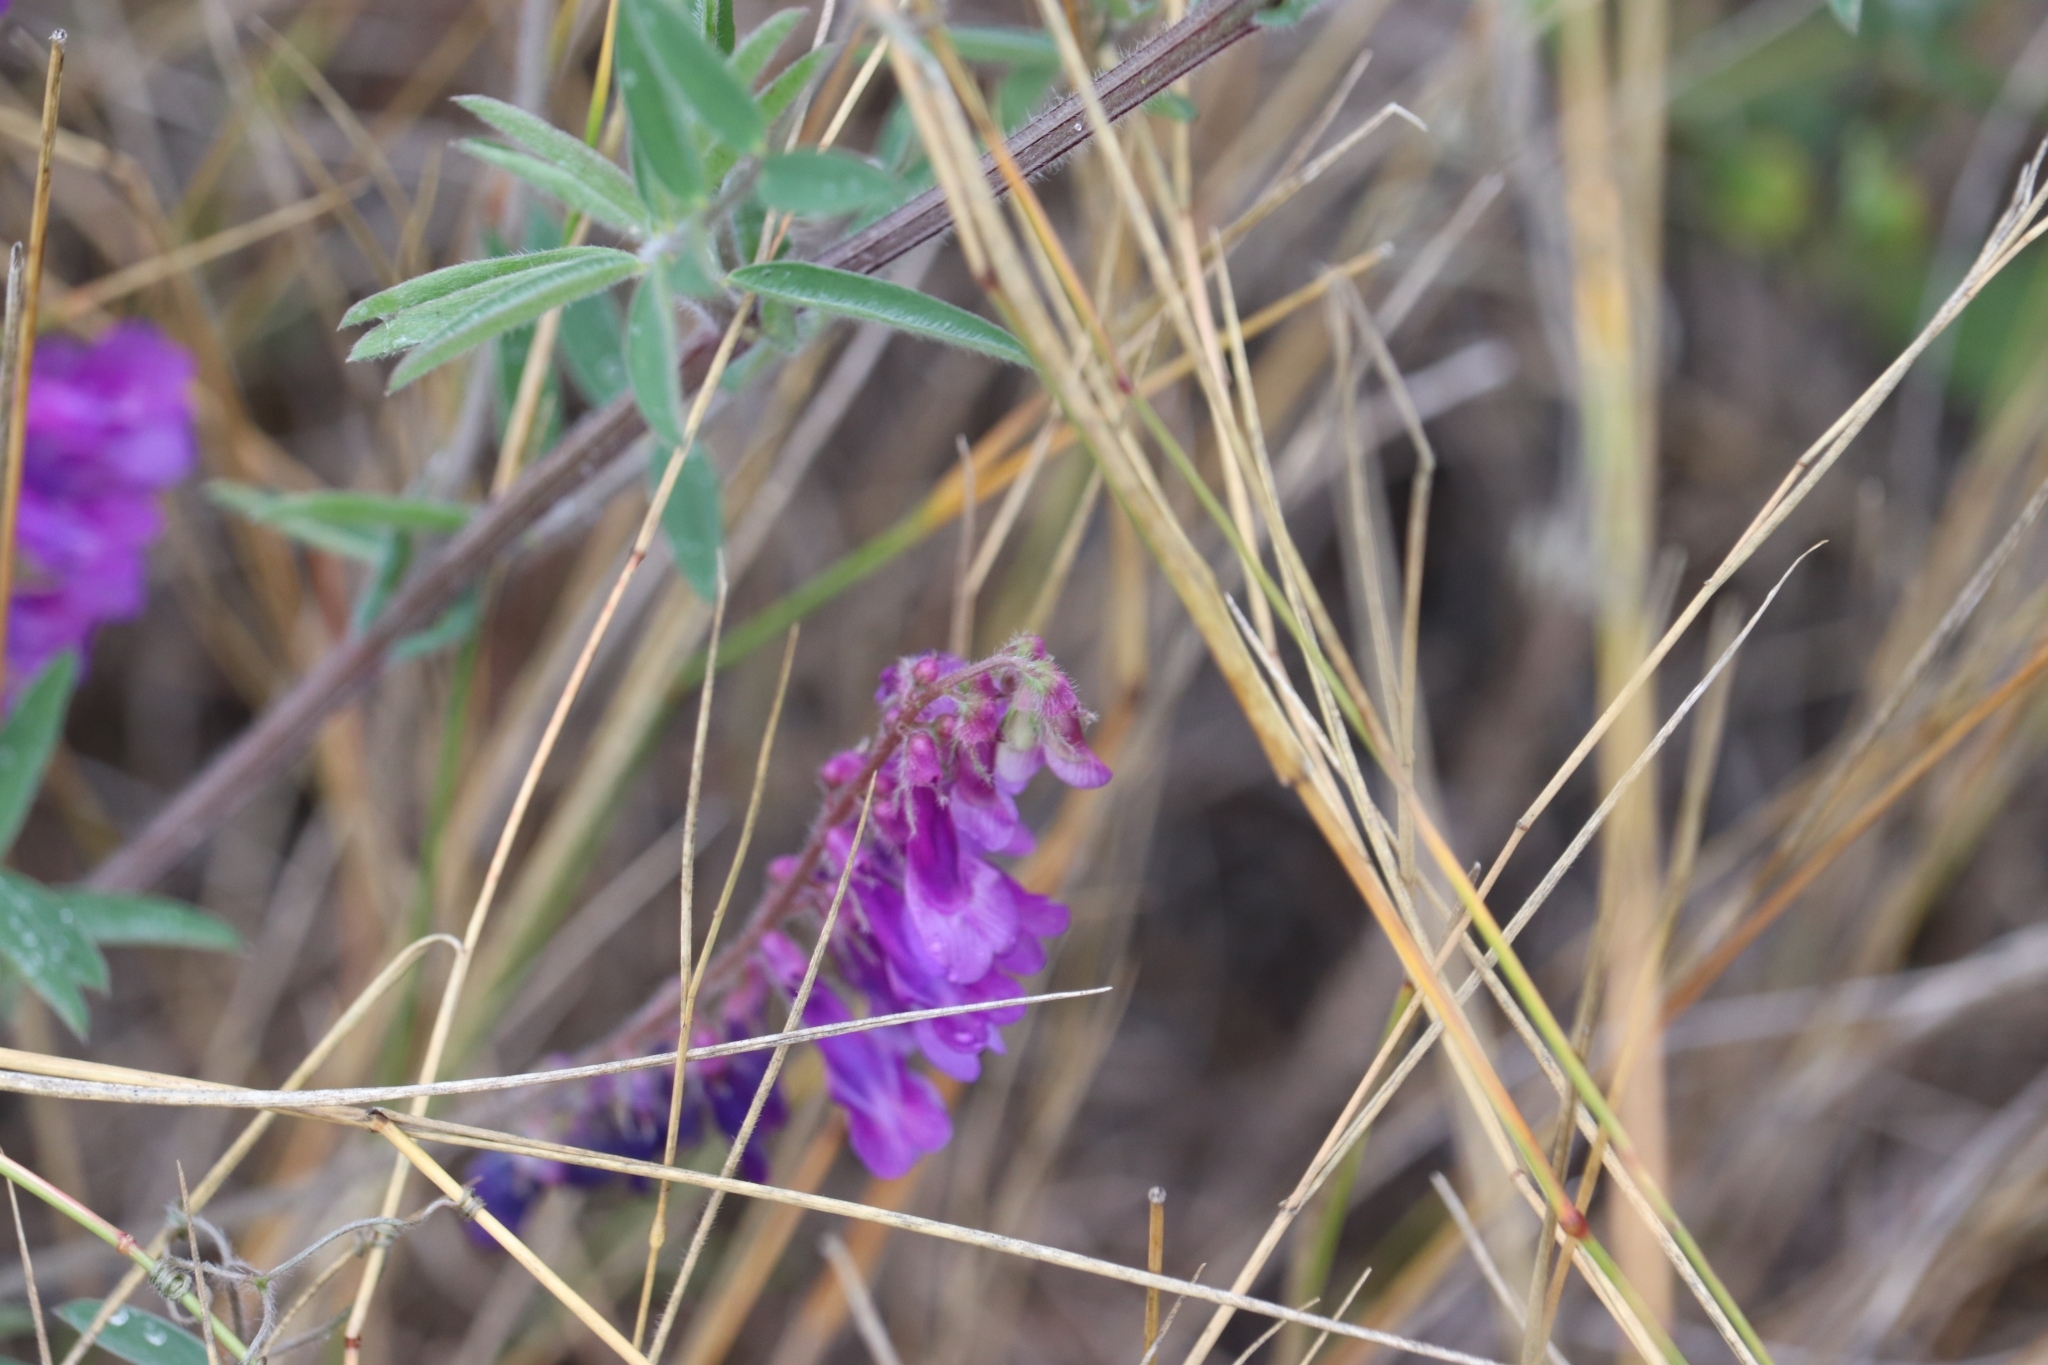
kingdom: Plantae
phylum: Tracheophyta
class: Magnoliopsida
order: Fabales
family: Fabaceae
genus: Vicia
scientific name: Vicia villosa
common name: Fodder vetch
